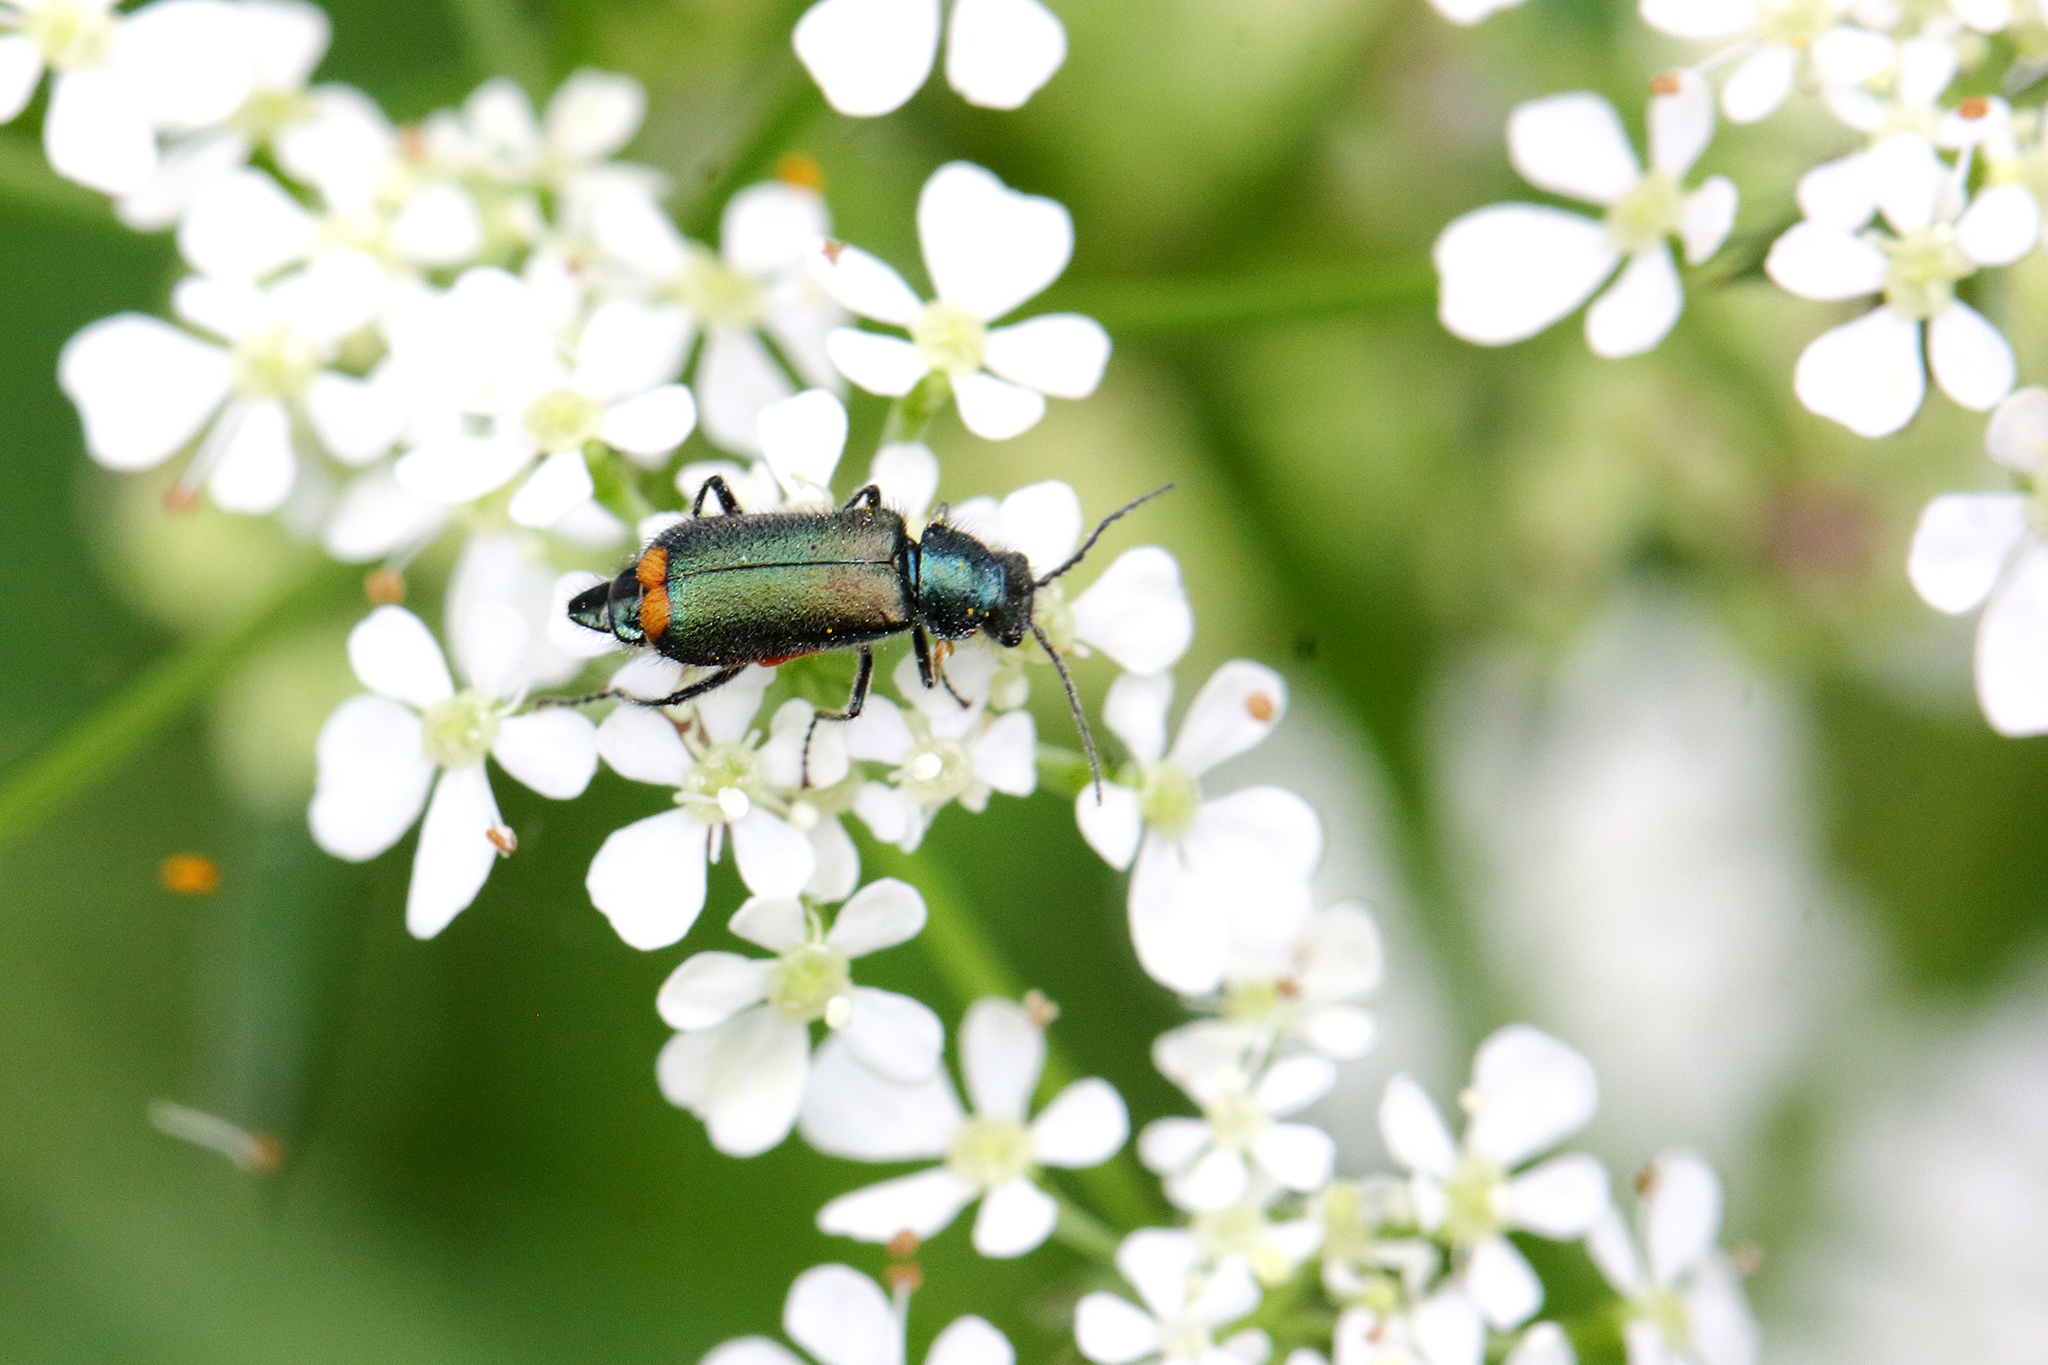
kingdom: Animalia
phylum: Arthropoda
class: Insecta
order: Coleoptera
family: Melyridae
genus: Malachius
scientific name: Malachius bipustulatus
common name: Malachite beetle
